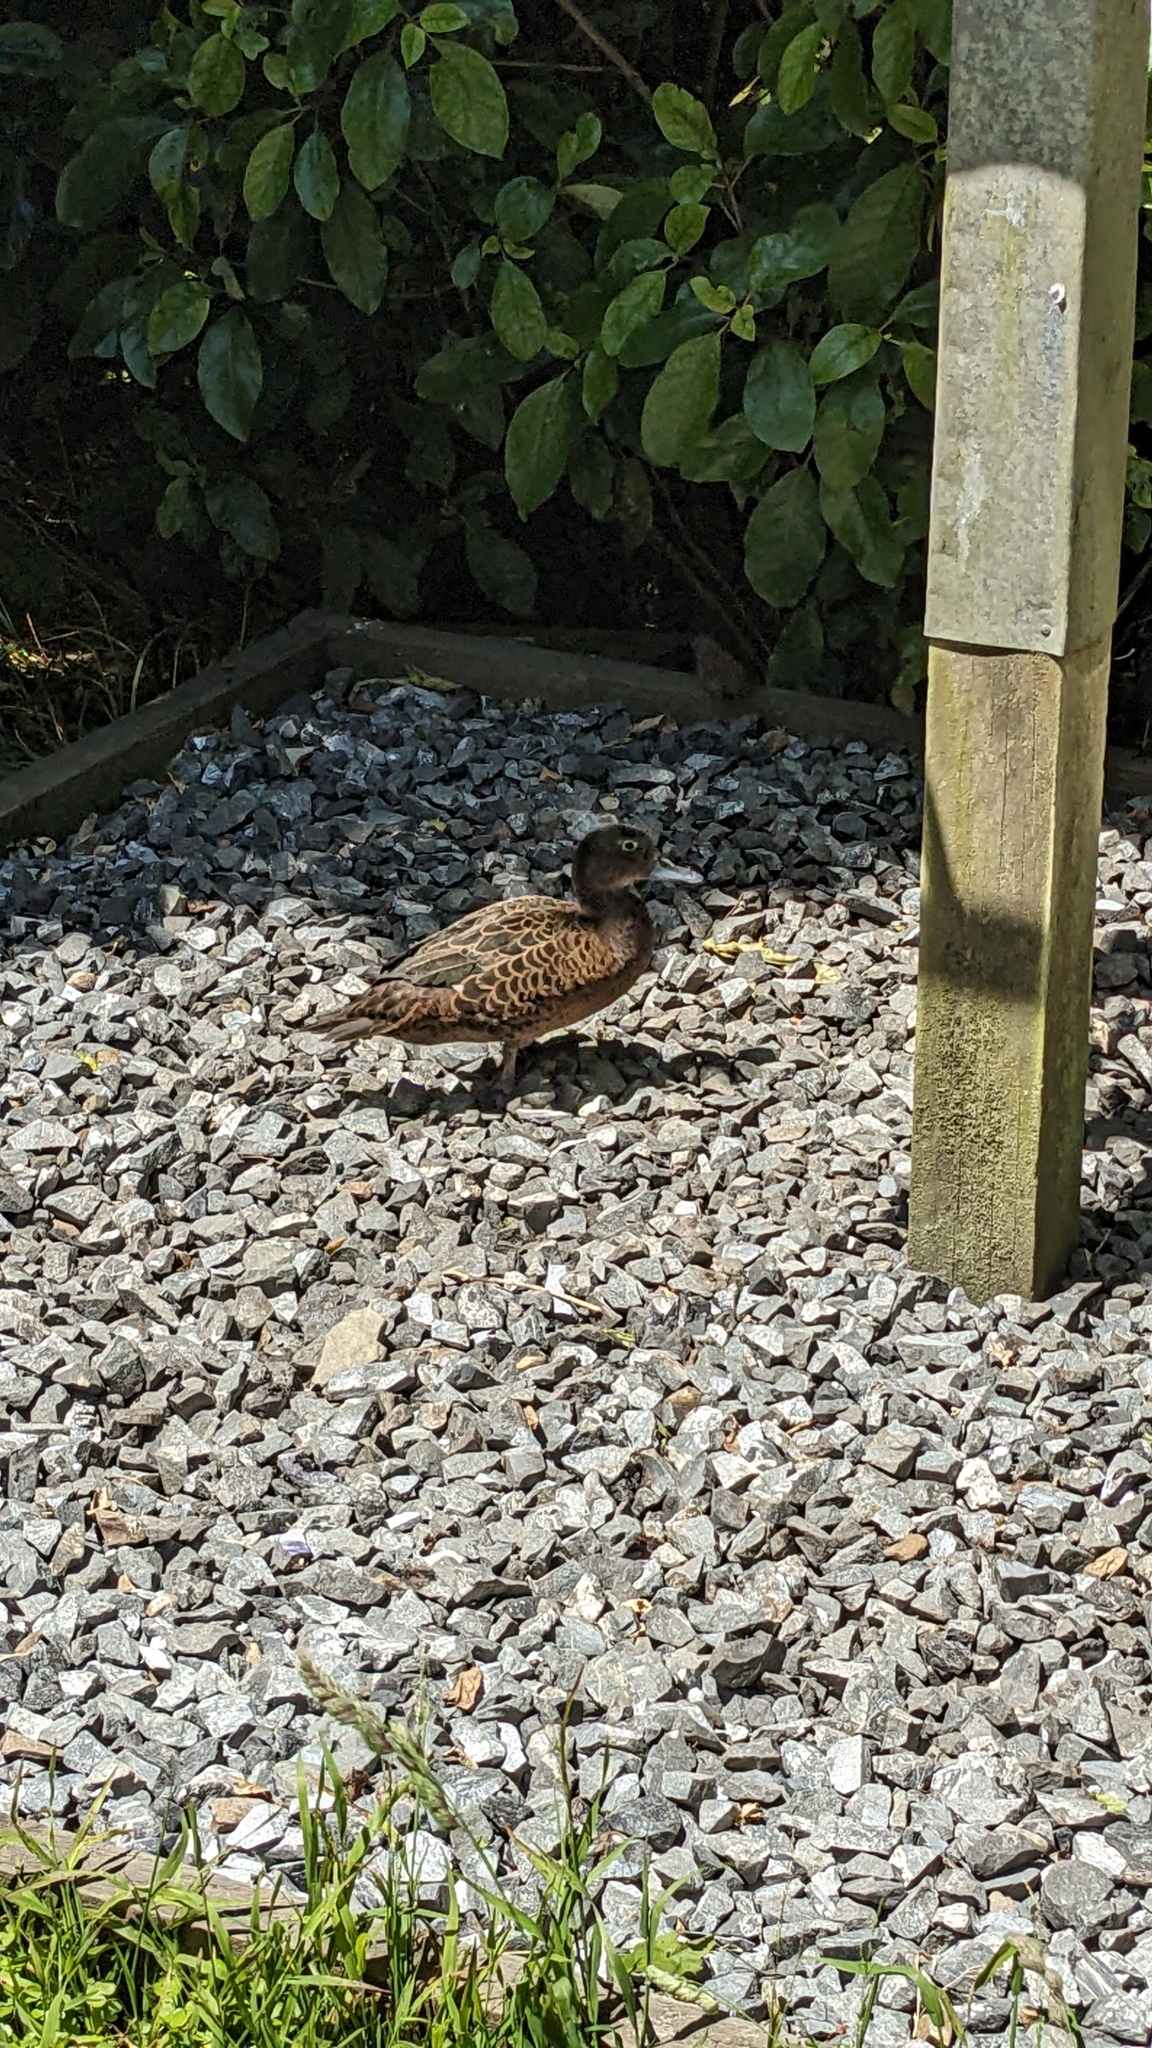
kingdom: Animalia
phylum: Chordata
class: Aves
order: Anseriformes
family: Anatidae
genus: Anas
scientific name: Anas chlorotis
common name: Brown teal
